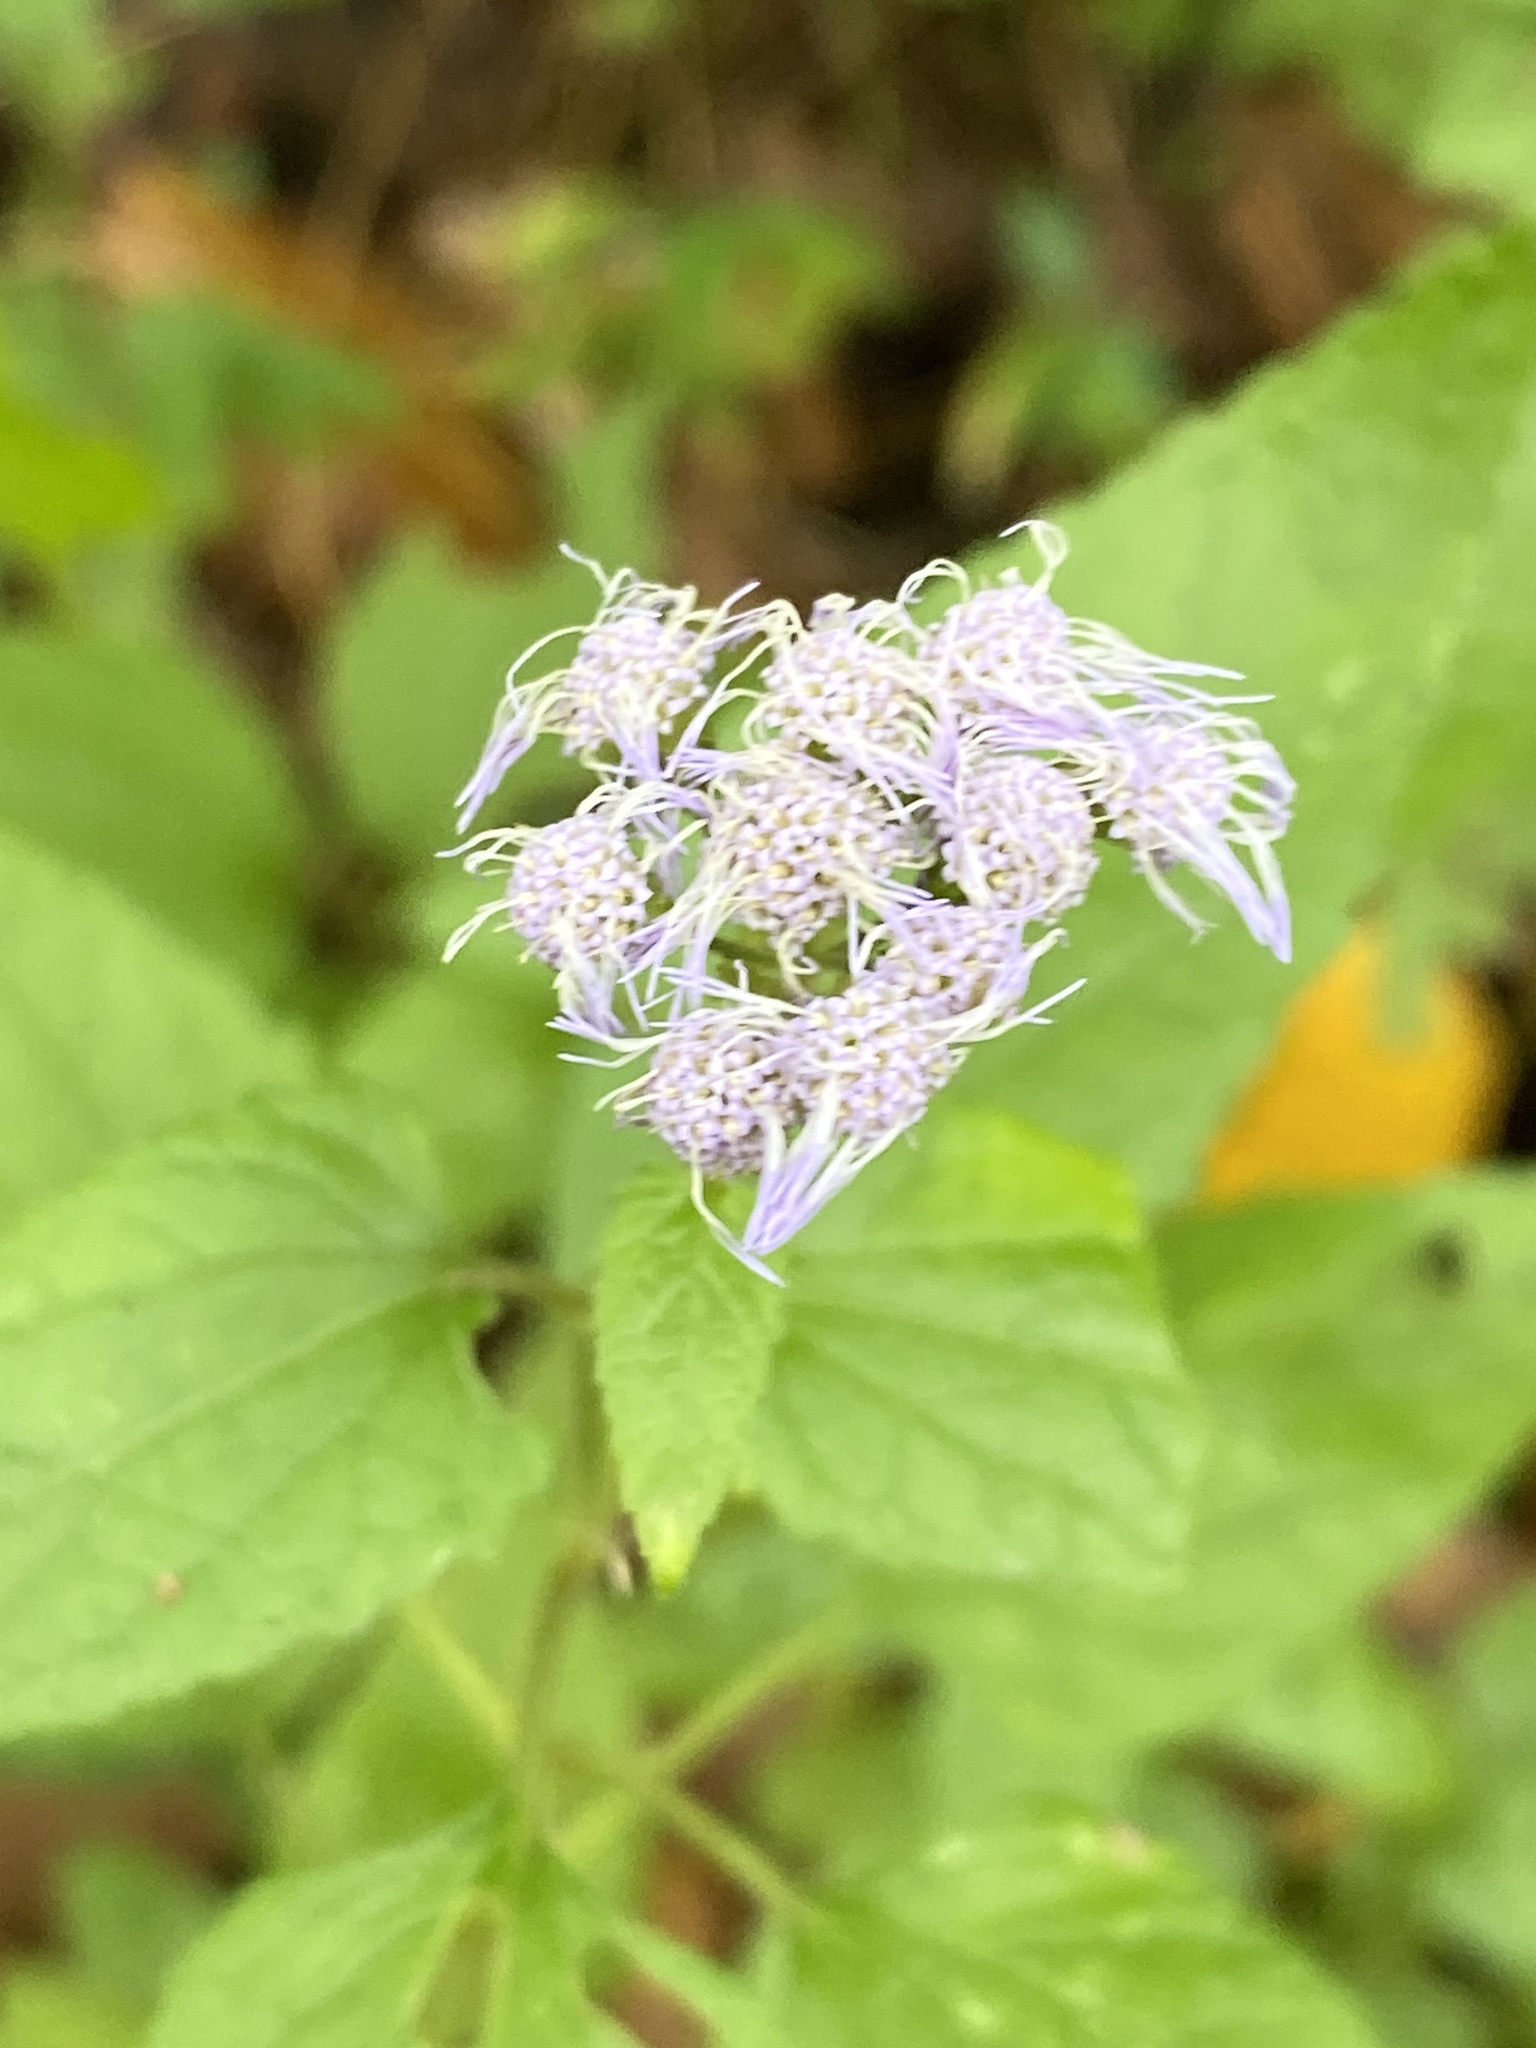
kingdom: Plantae
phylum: Tracheophyta
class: Magnoliopsida
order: Asterales
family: Asteraceae
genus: Conoclinium
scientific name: Conoclinium coelestinum
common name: Blue mistflower
